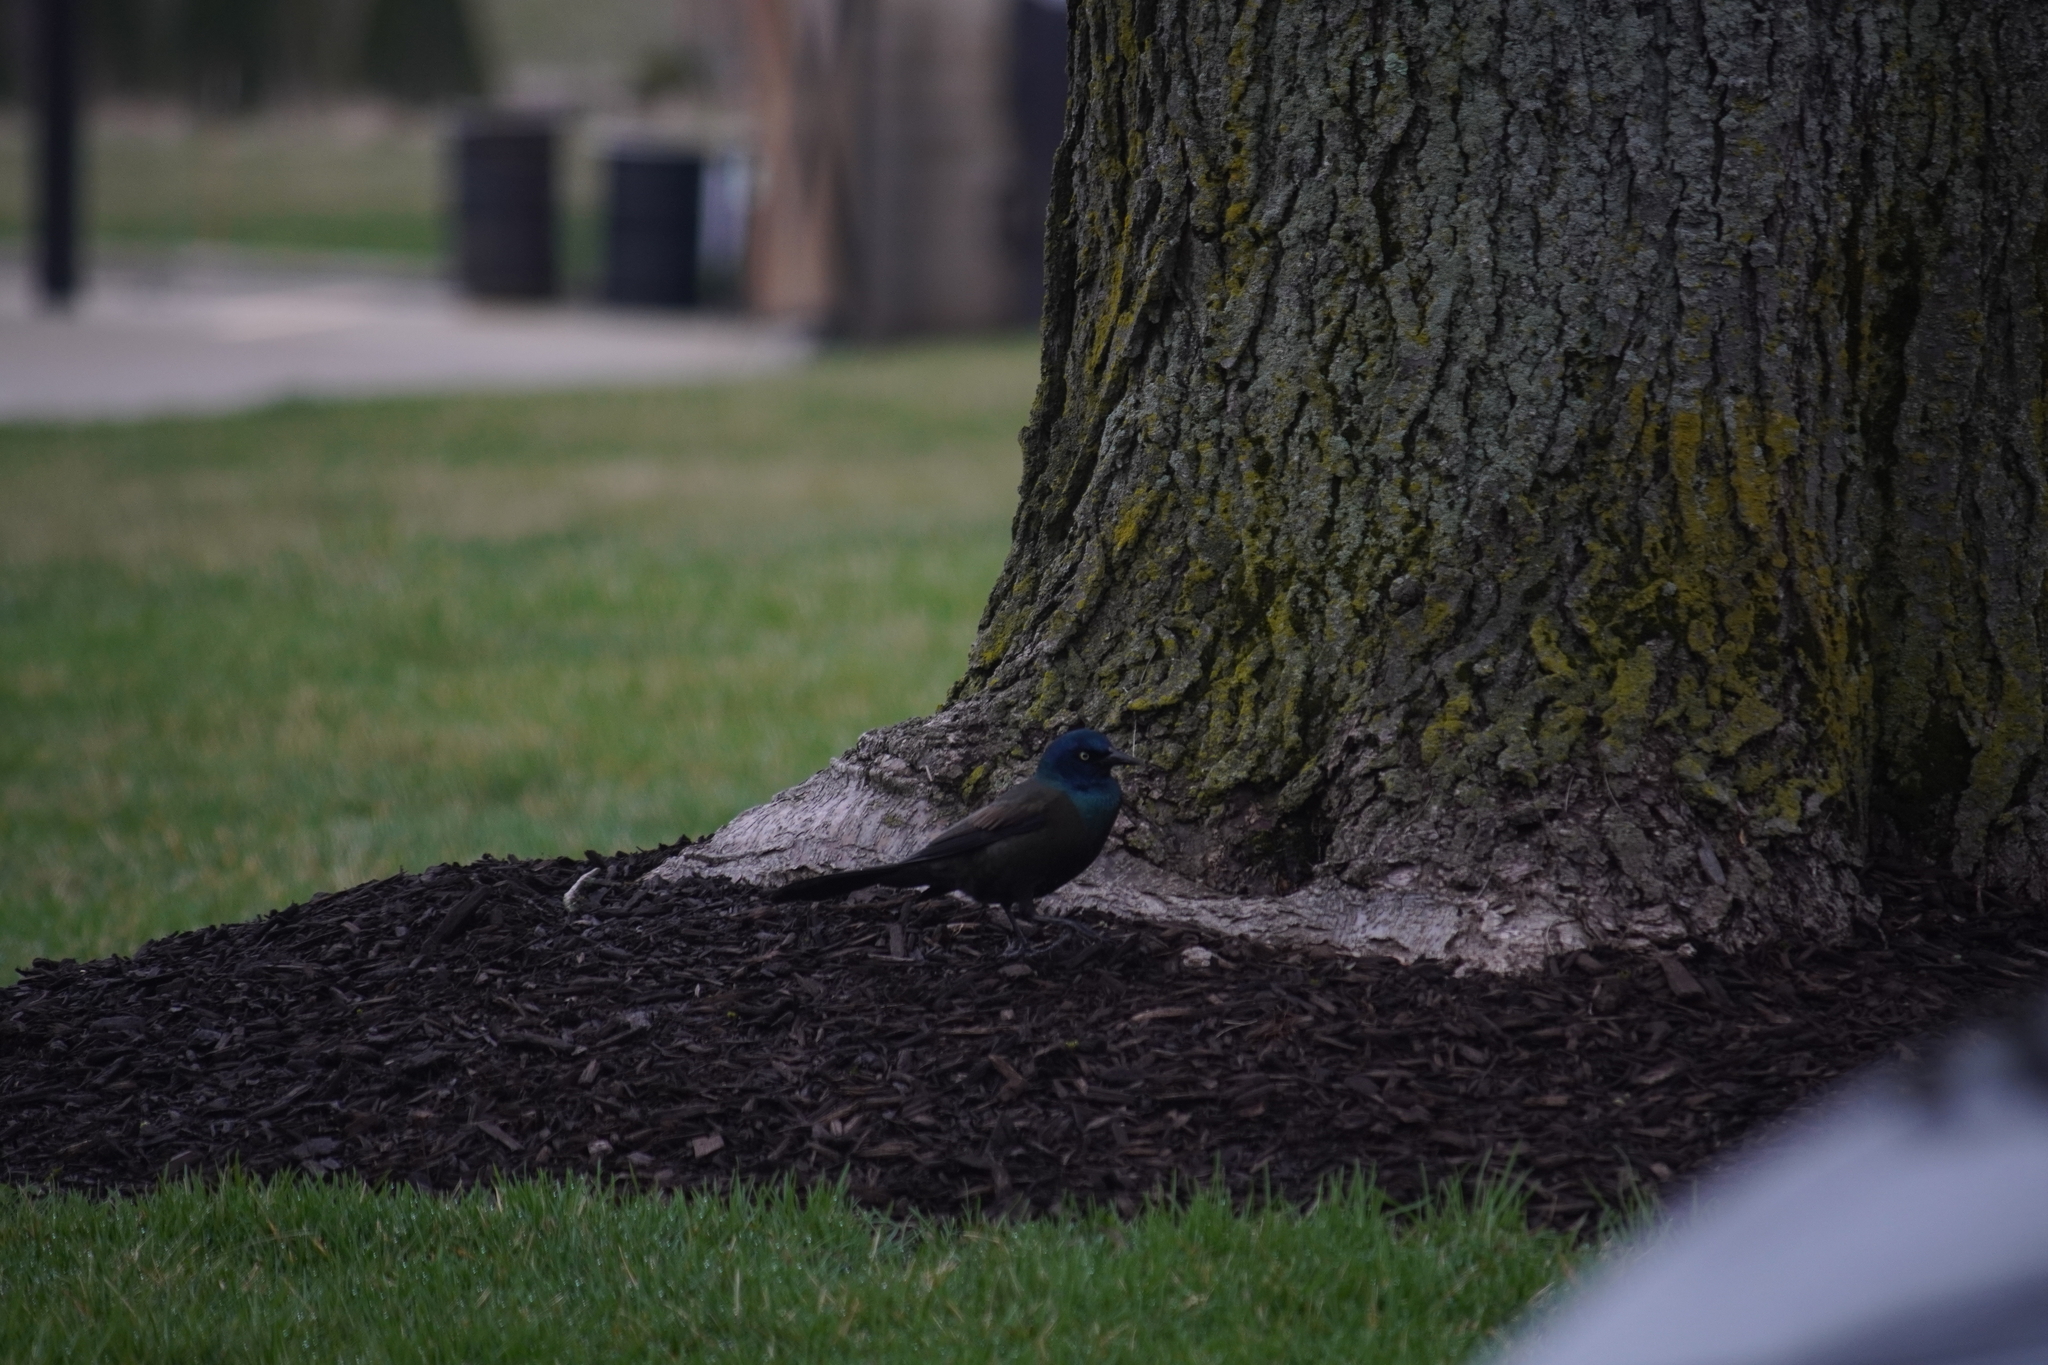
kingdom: Animalia
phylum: Chordata
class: Aves
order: Passeriformes
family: Icteridae
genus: Quiscalus
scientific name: Quiscalus quiscula
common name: Common grackle
